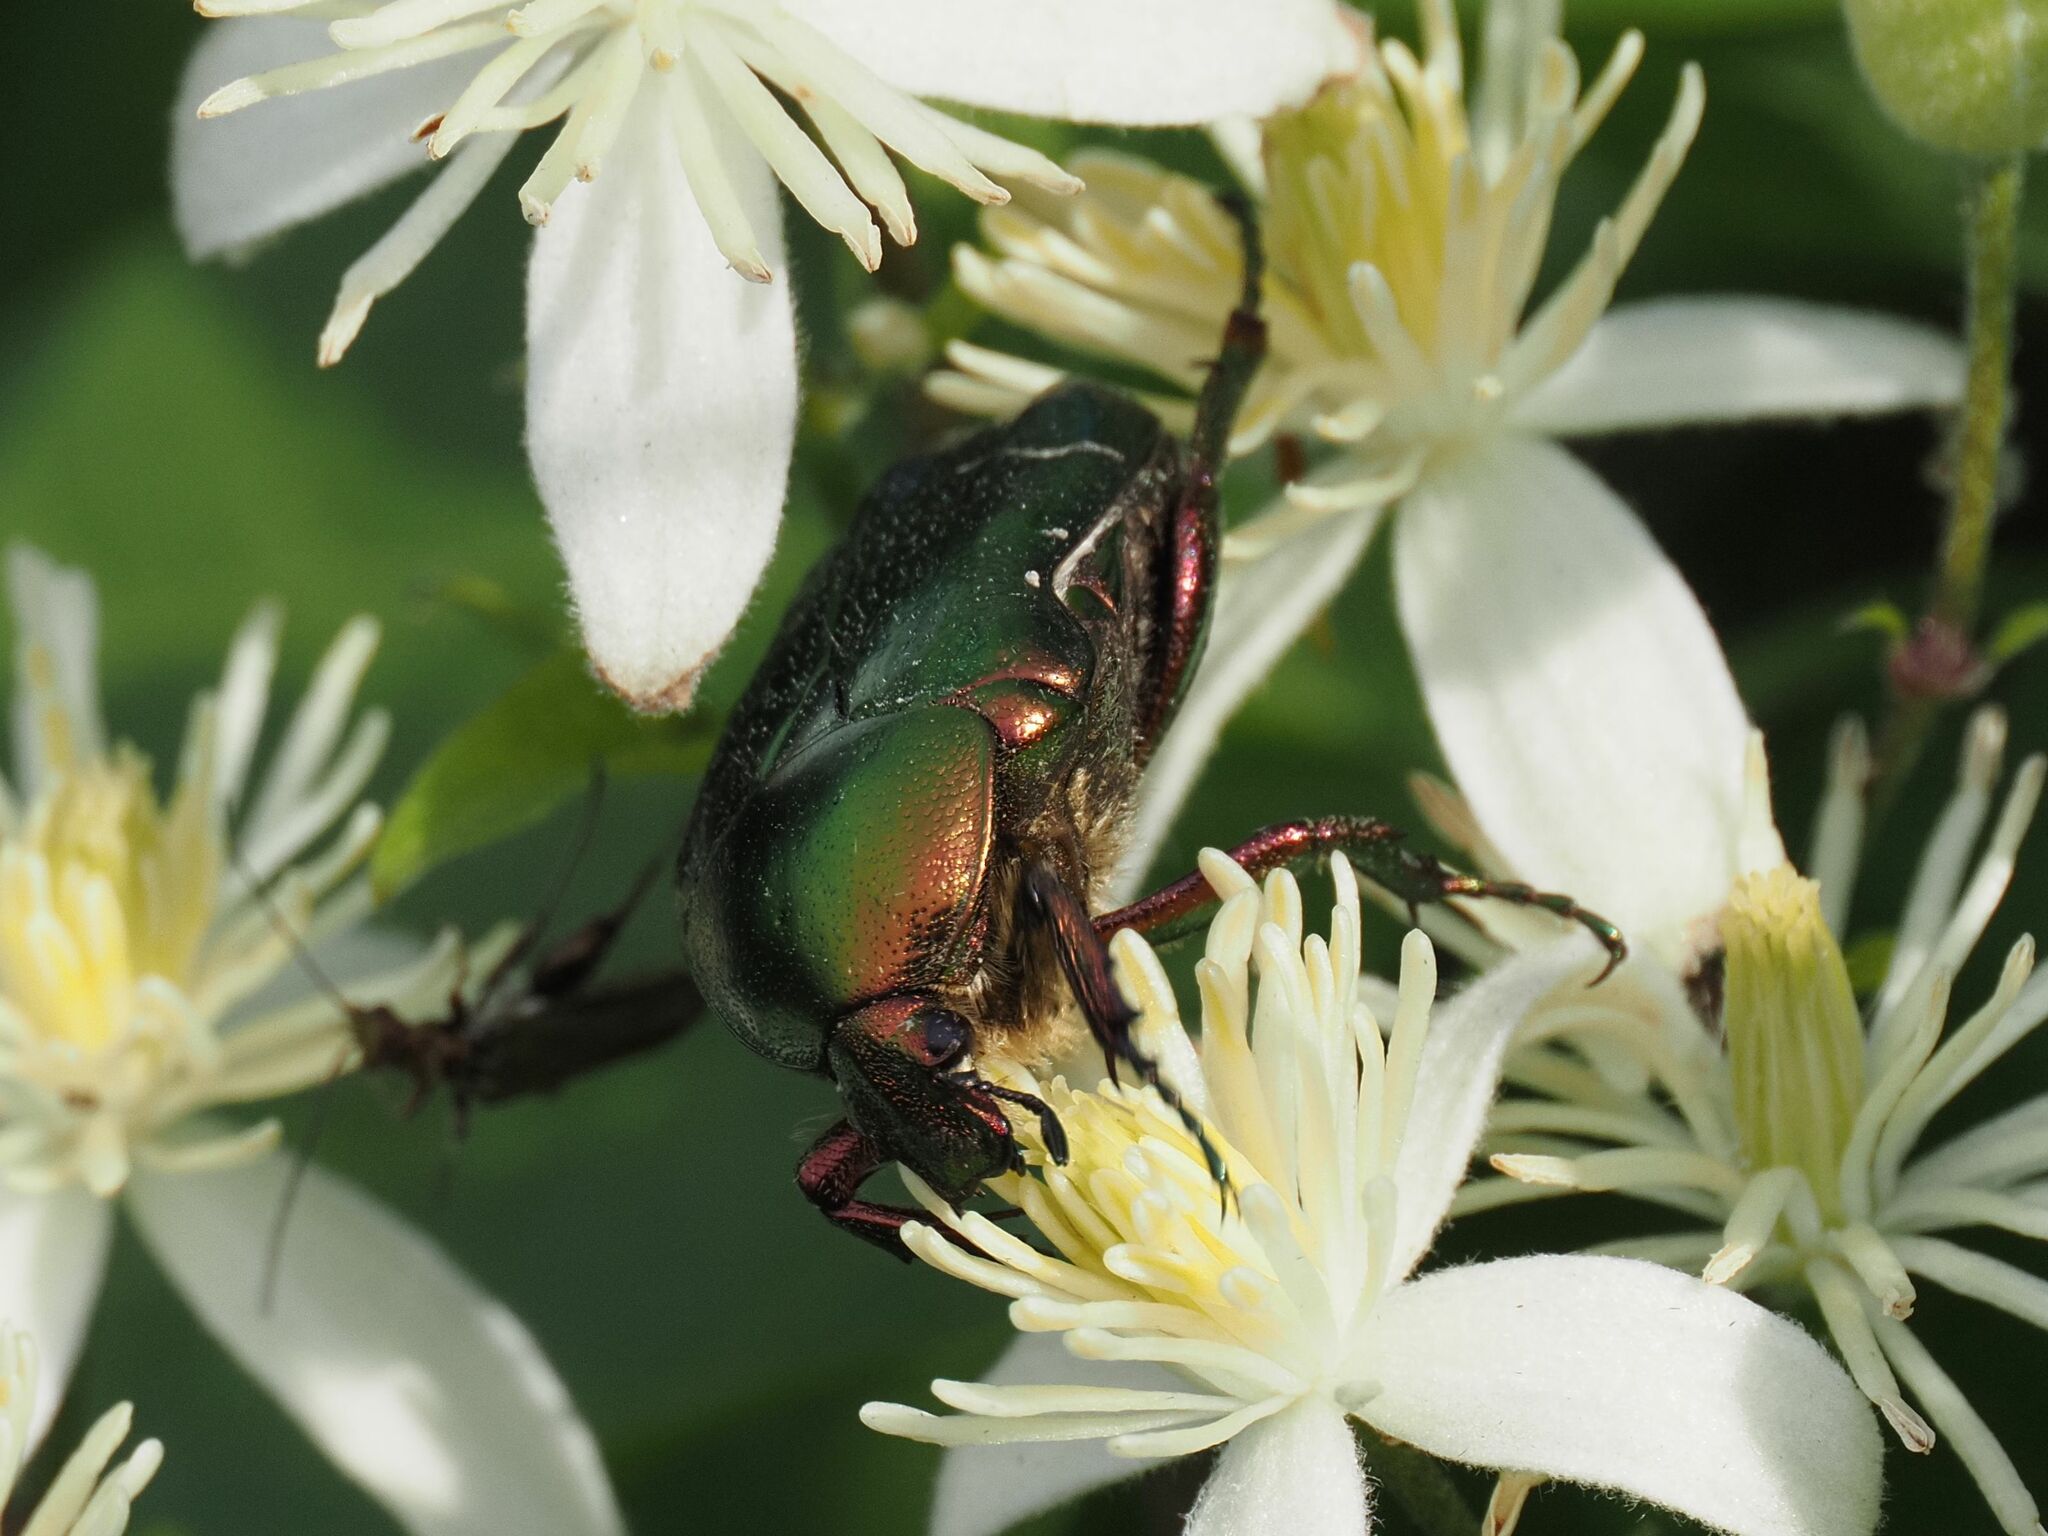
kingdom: Animalia
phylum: Arthropoda
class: Insecta
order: Coleoptera
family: Scarabaeidae
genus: Cetonia
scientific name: Cetonia aurata
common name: Rose chafer
